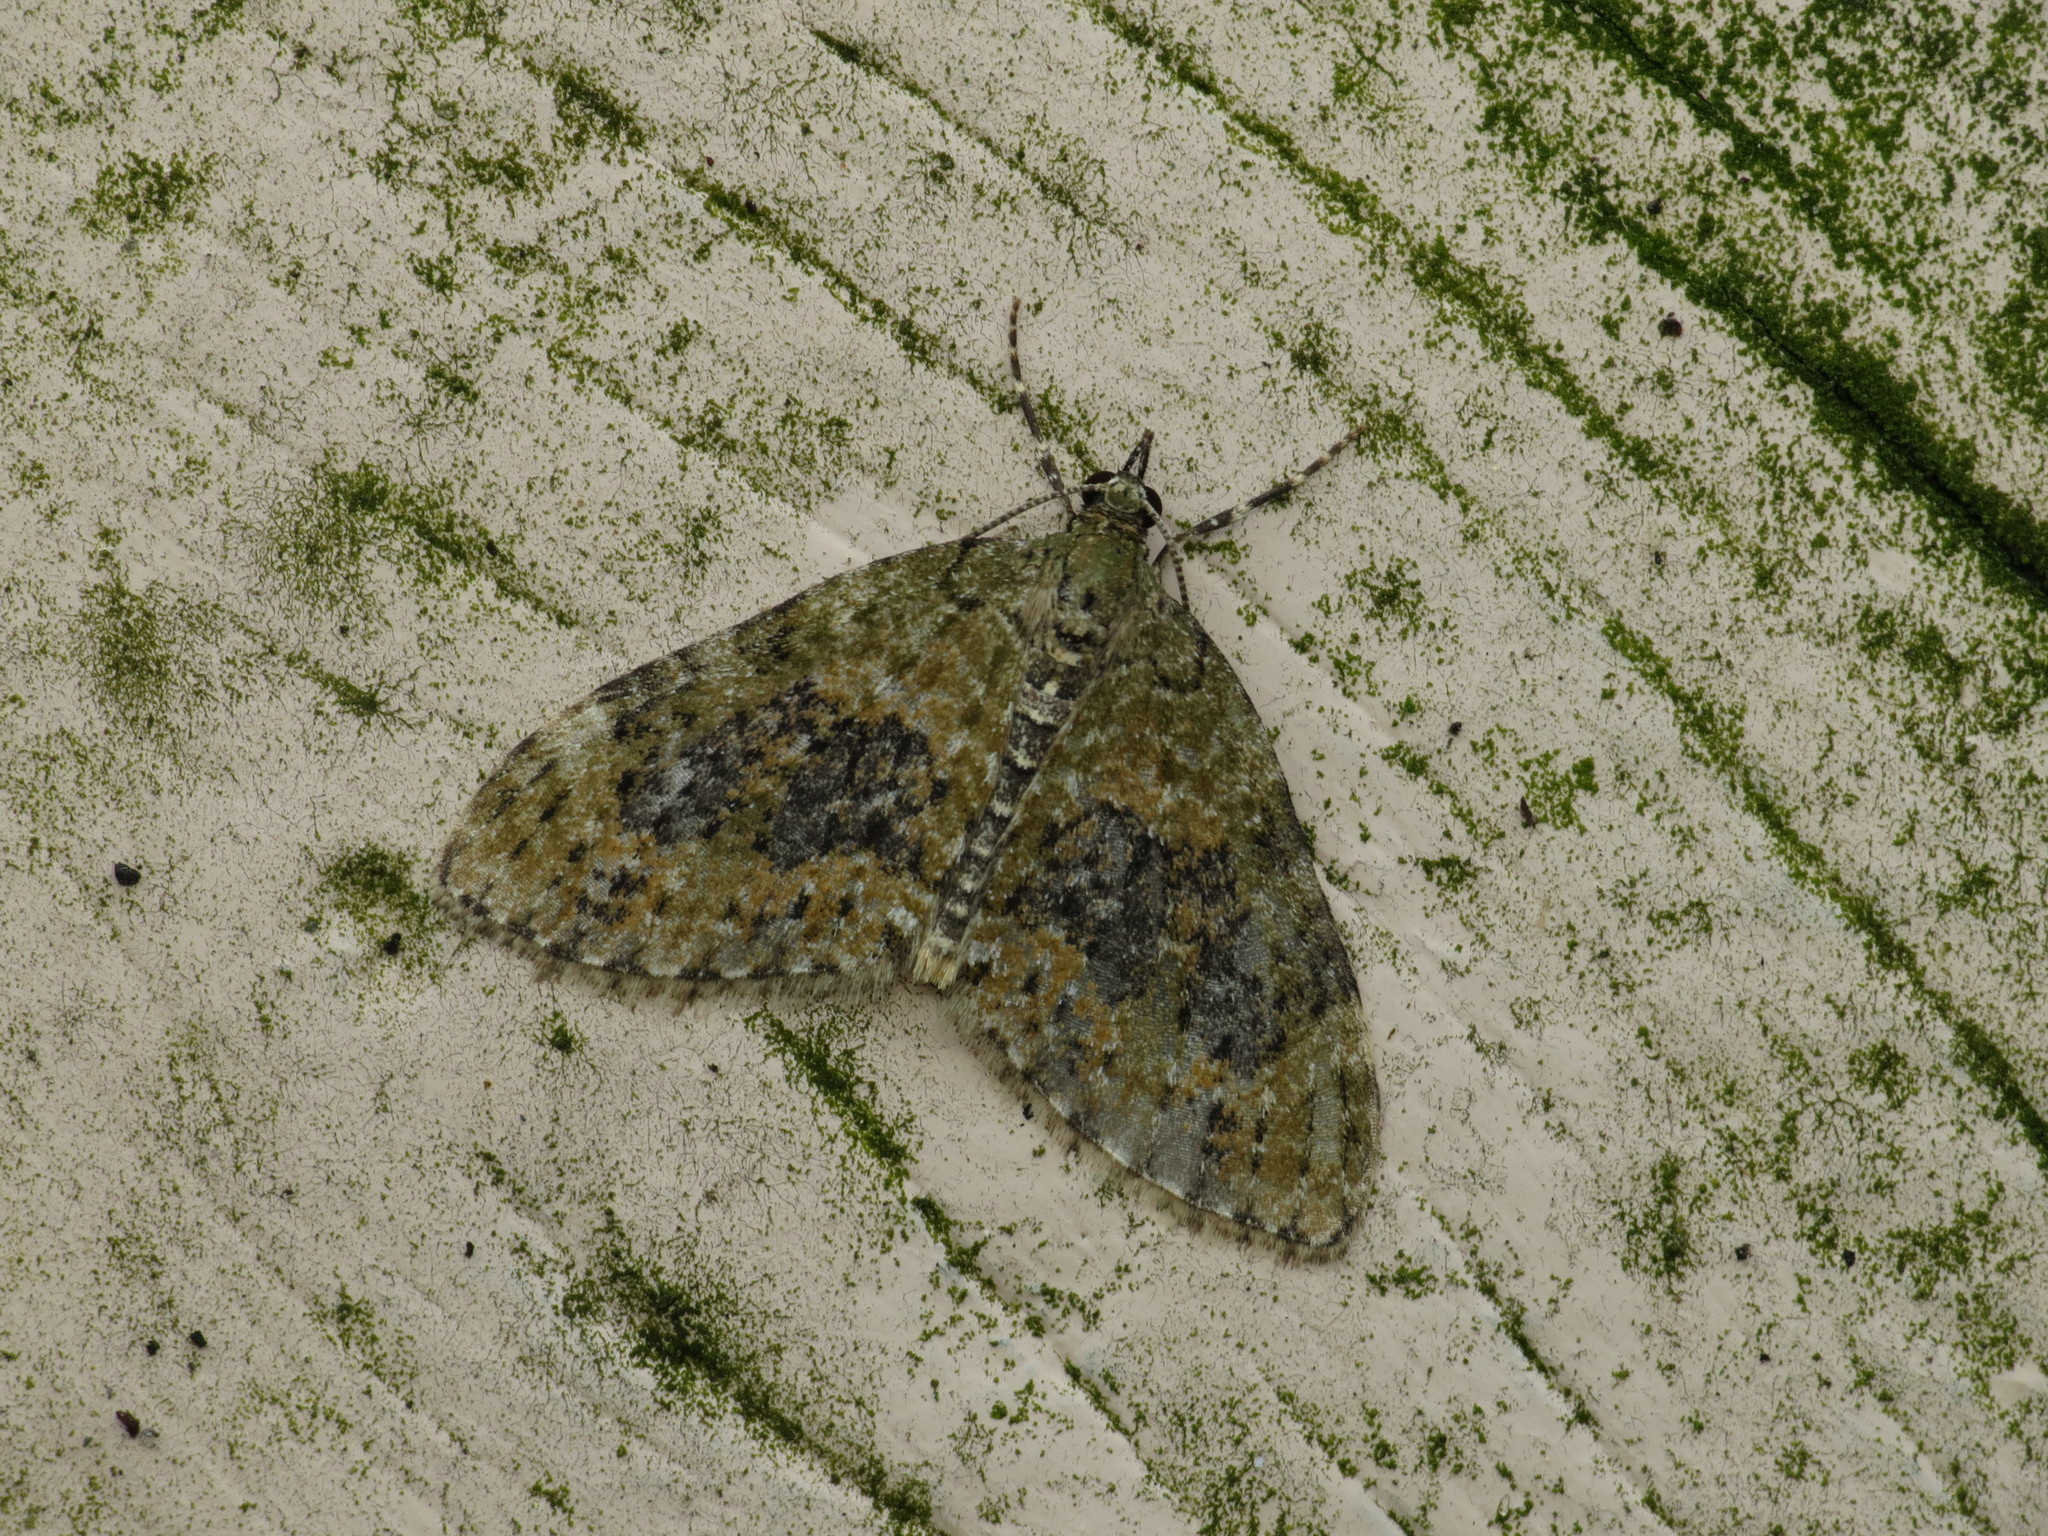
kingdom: Animalia
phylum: Arthropoda
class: Insecta
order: Lepidoptera
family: Geometridae
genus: Acasis
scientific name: Acasis viretata
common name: Yellow-barred brindle
